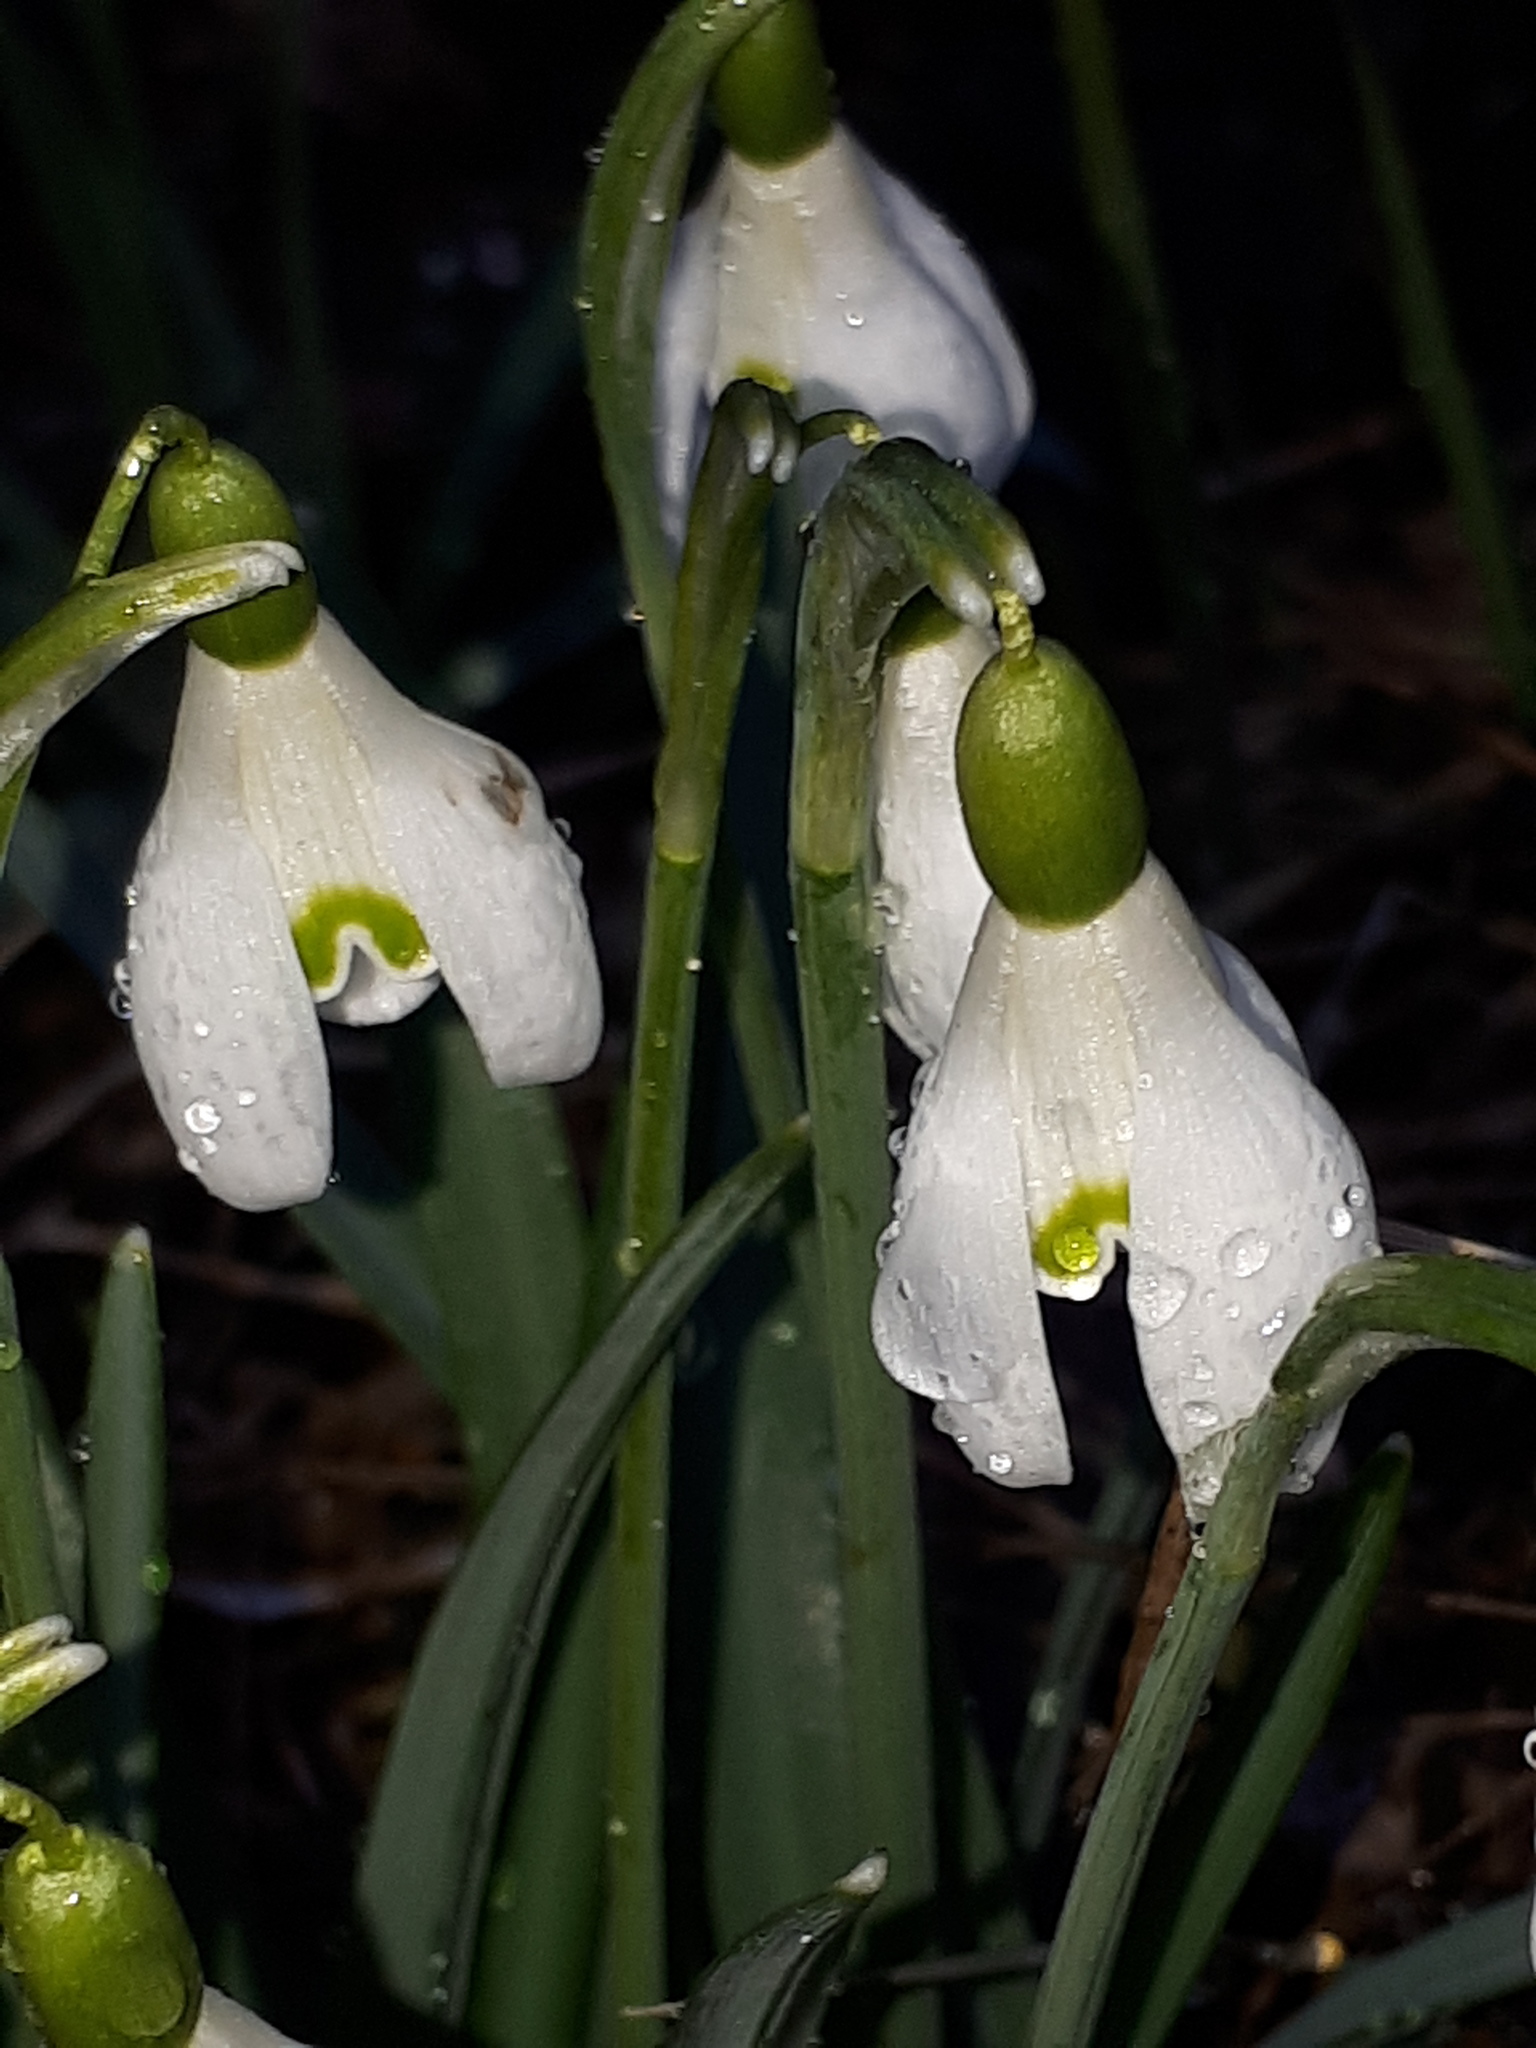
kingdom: Plantae
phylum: Tracheophyta
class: Liliopsida
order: Asparagales
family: Amaryllidaceae
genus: Galanthus
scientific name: Galanthus nivalis
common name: Snowdrop
